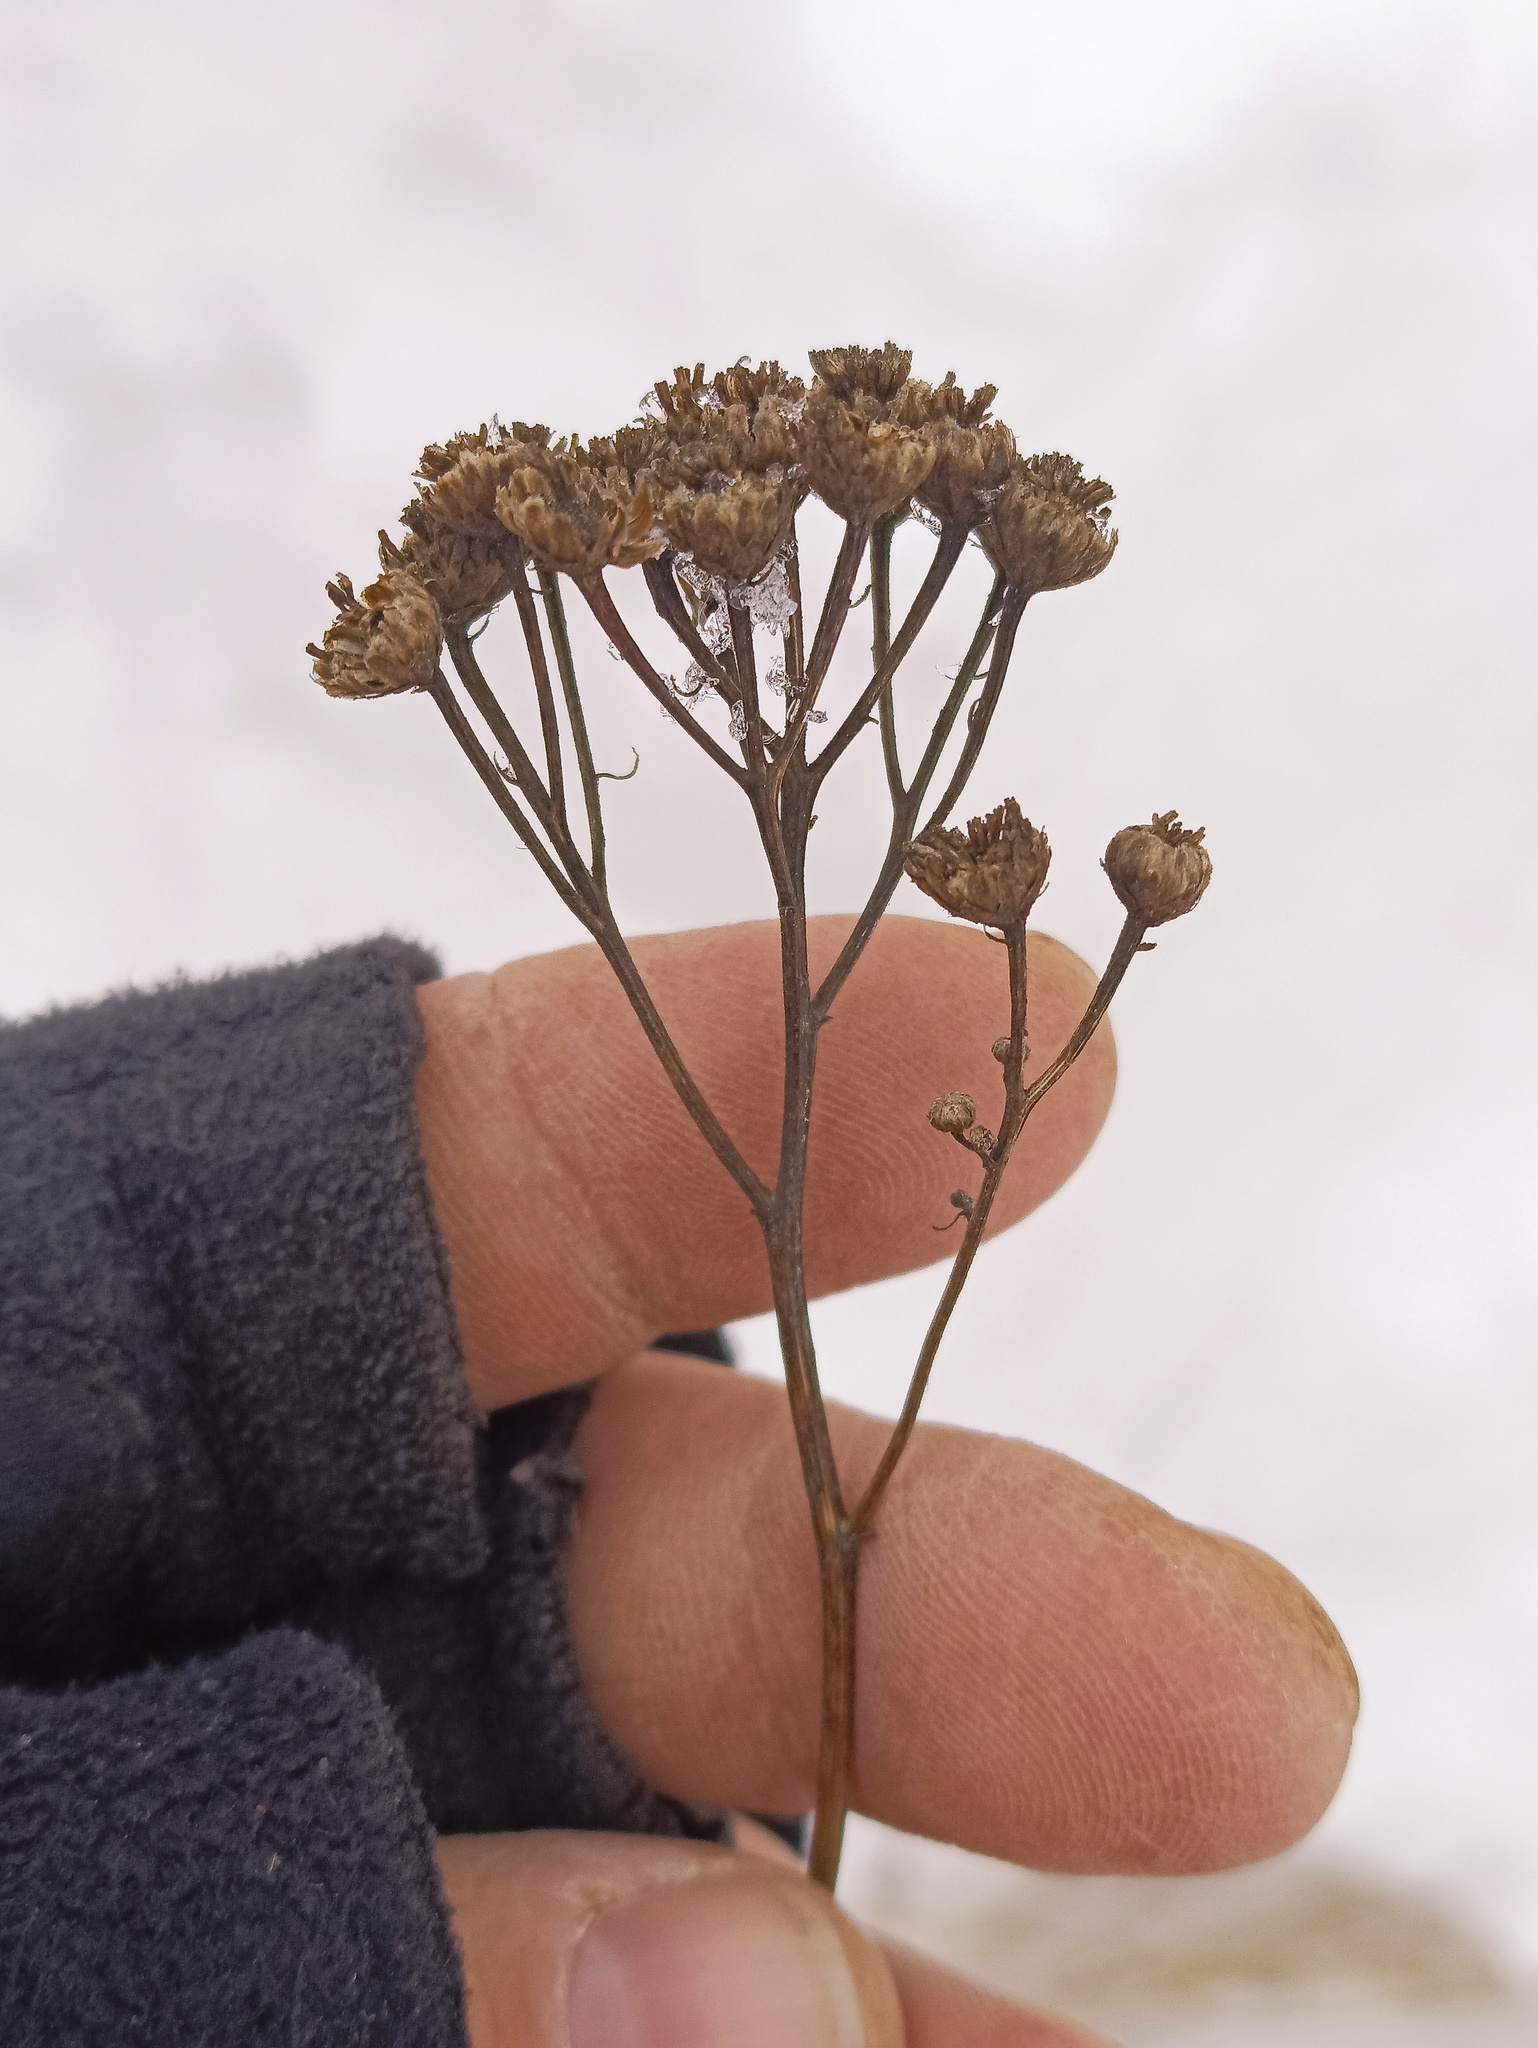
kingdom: Plantae
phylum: Tracheophyta
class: Magnoliopsida
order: Asterales
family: Asteraceae
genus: Tanacetum
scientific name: Tanacetum vulgare
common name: Common tansy
